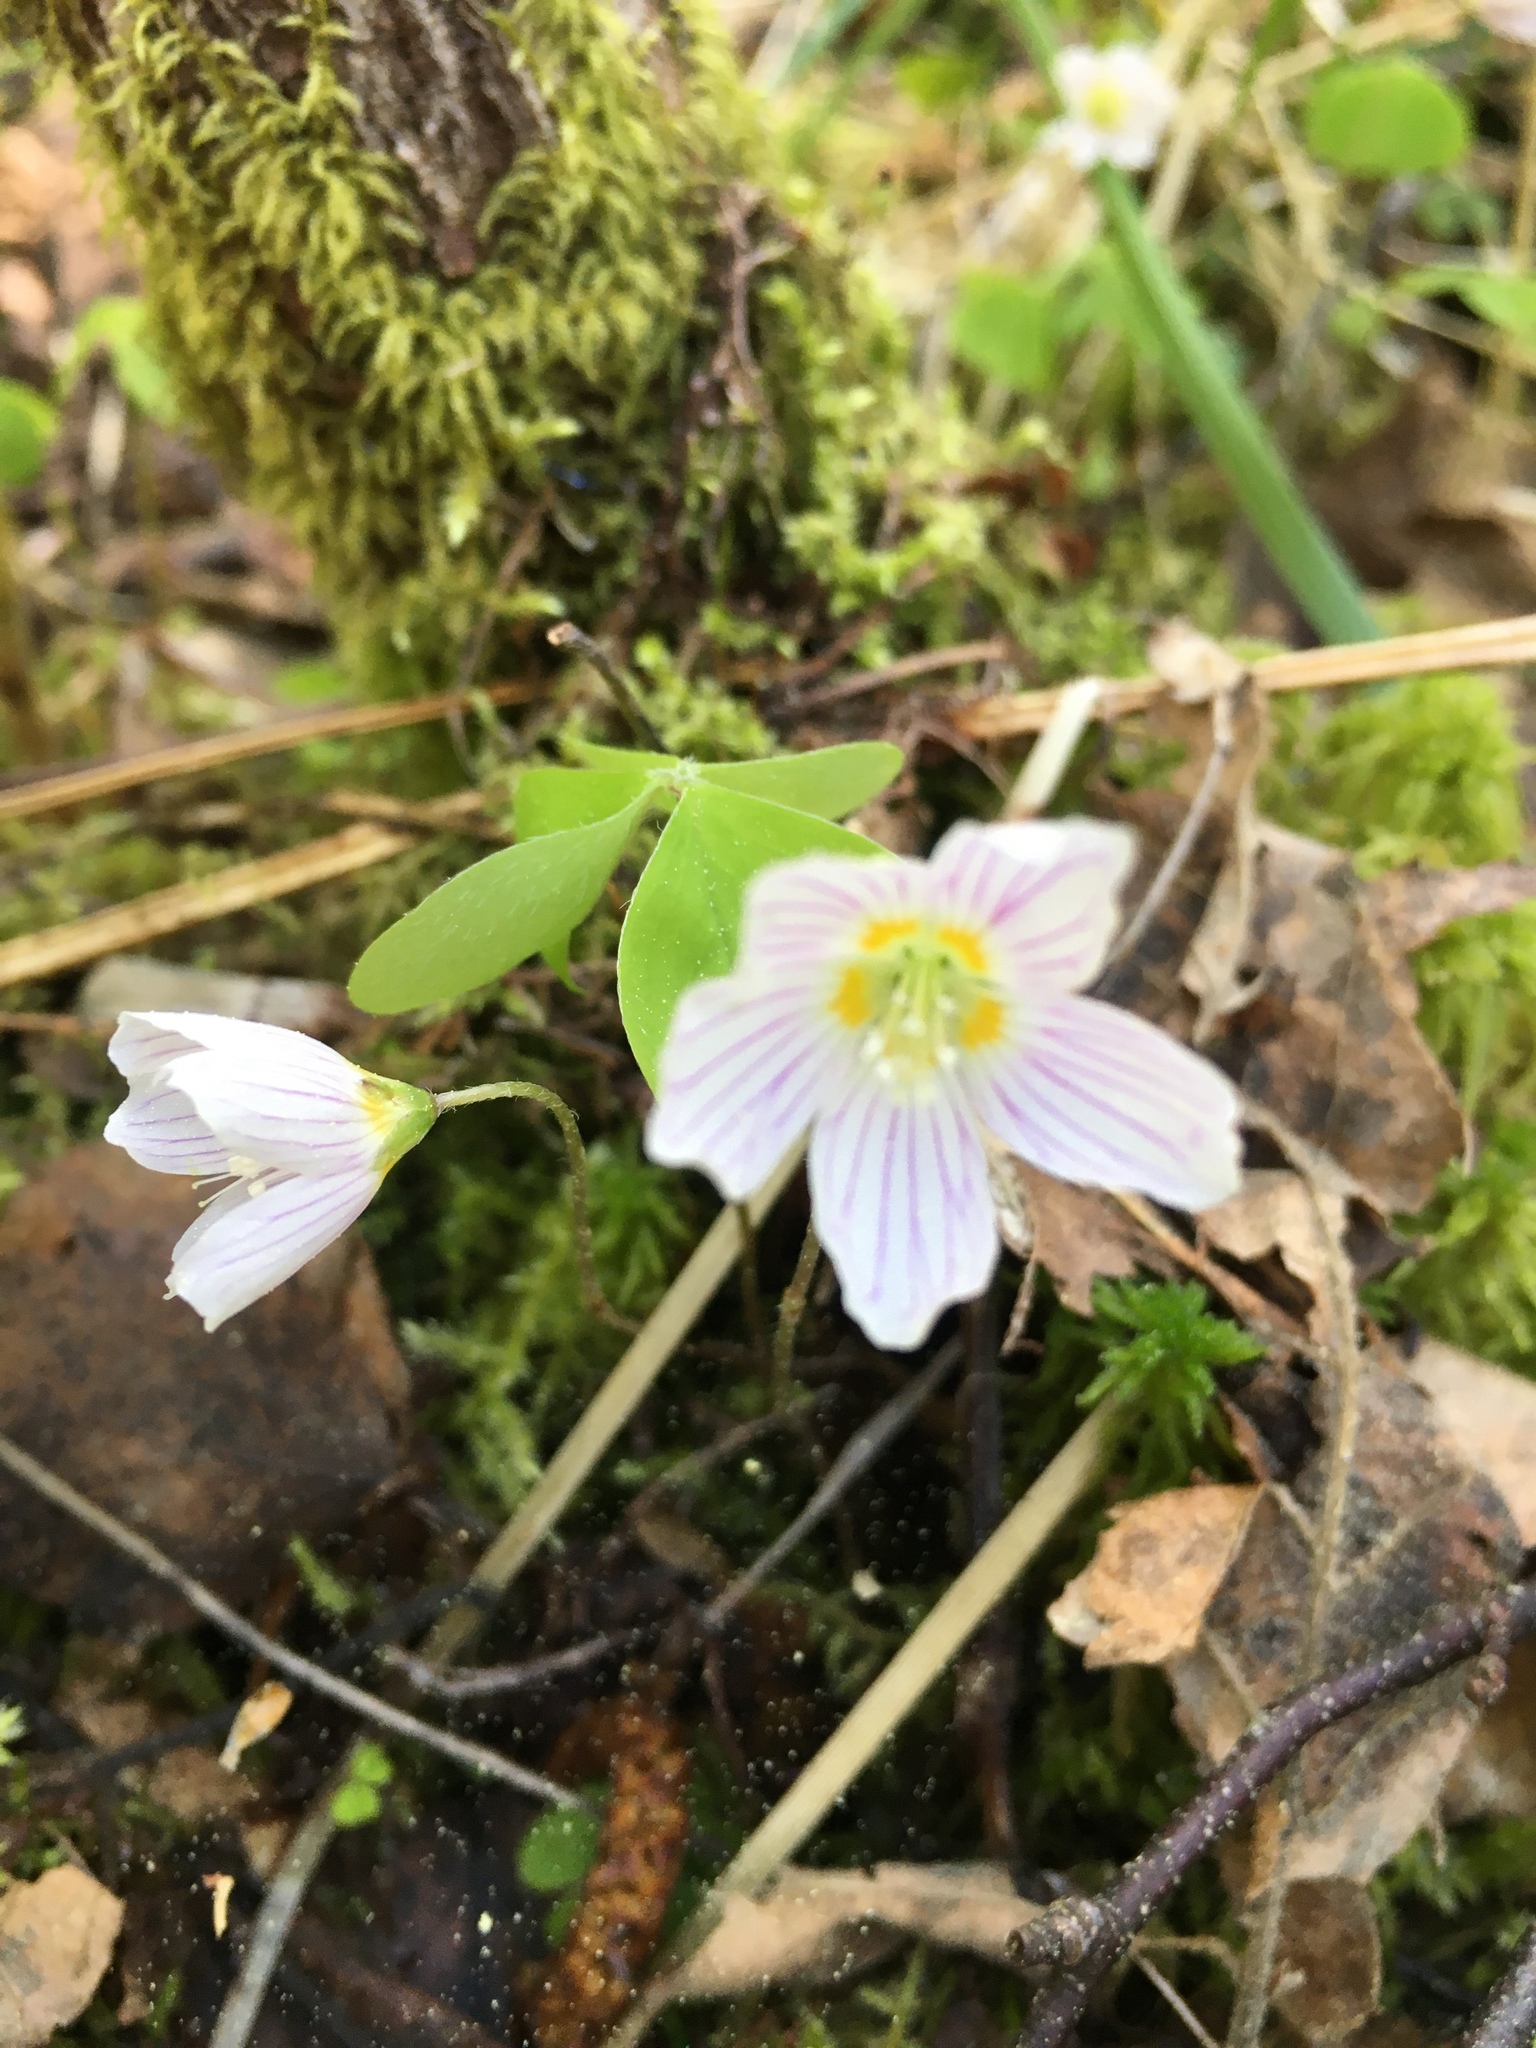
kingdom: Plantae
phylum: Tracheophyta
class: Magnoliopsida
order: Oxalidales
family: Oxalidaceae
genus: Oxalis
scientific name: Oxalis acetosella
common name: Wood-sorrel
